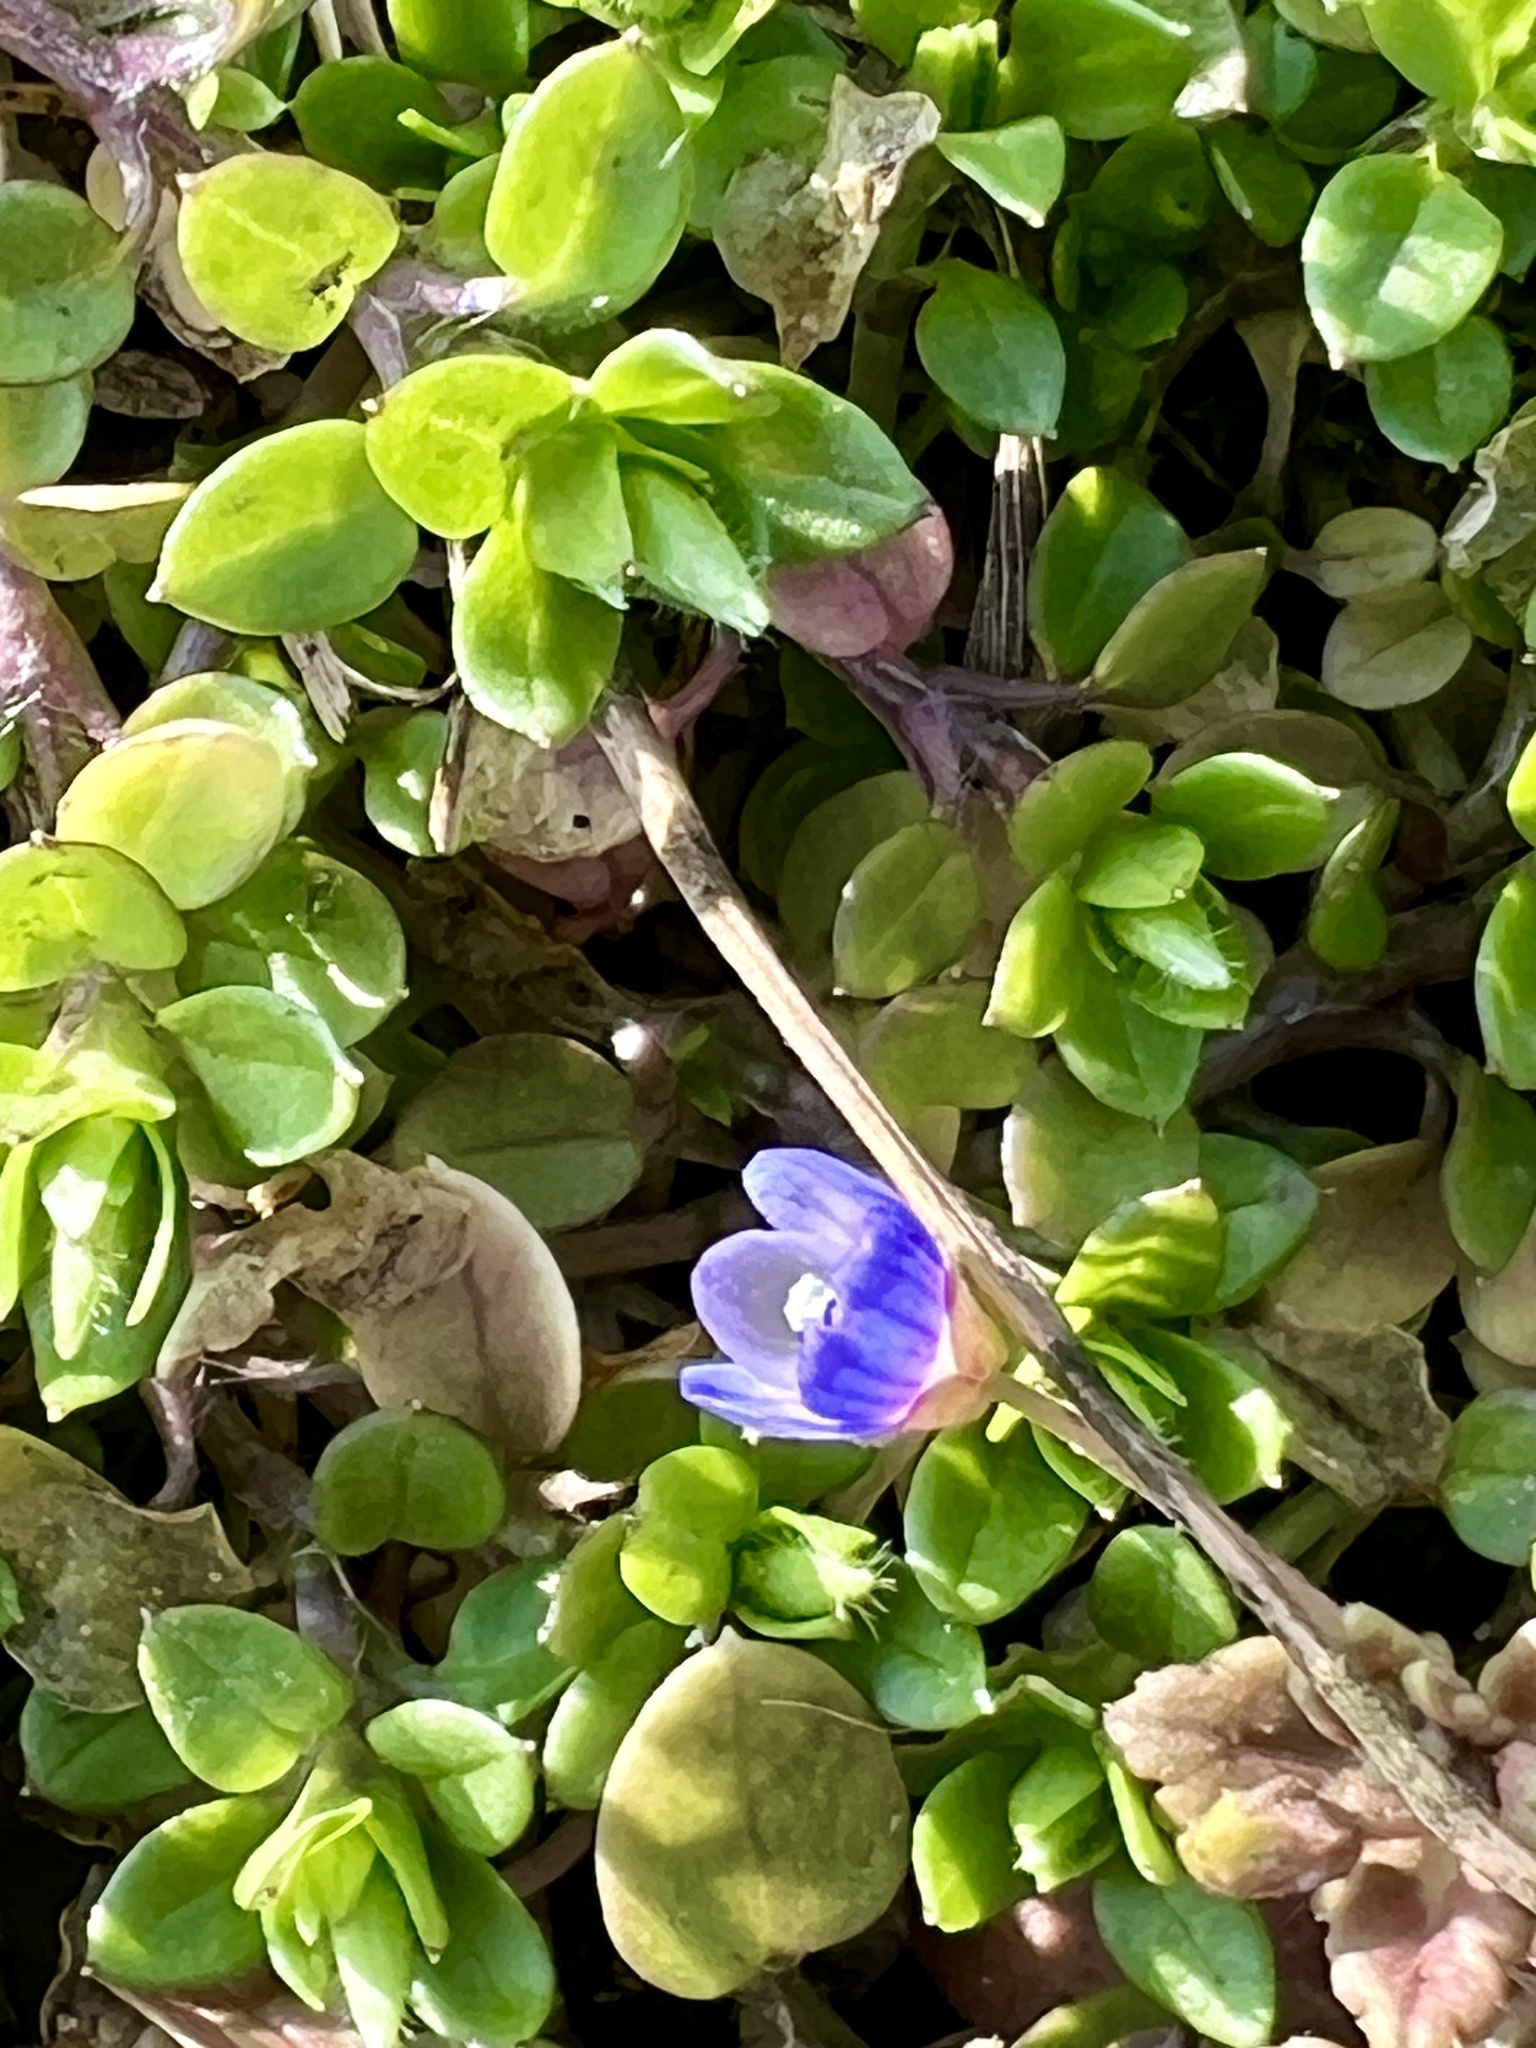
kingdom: Plantae
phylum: Tracheophyta
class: Magnoliopsida
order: Lamiales
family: Plantaginaceae
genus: Veronica
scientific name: Veronica polita
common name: Grey field-speedwell
